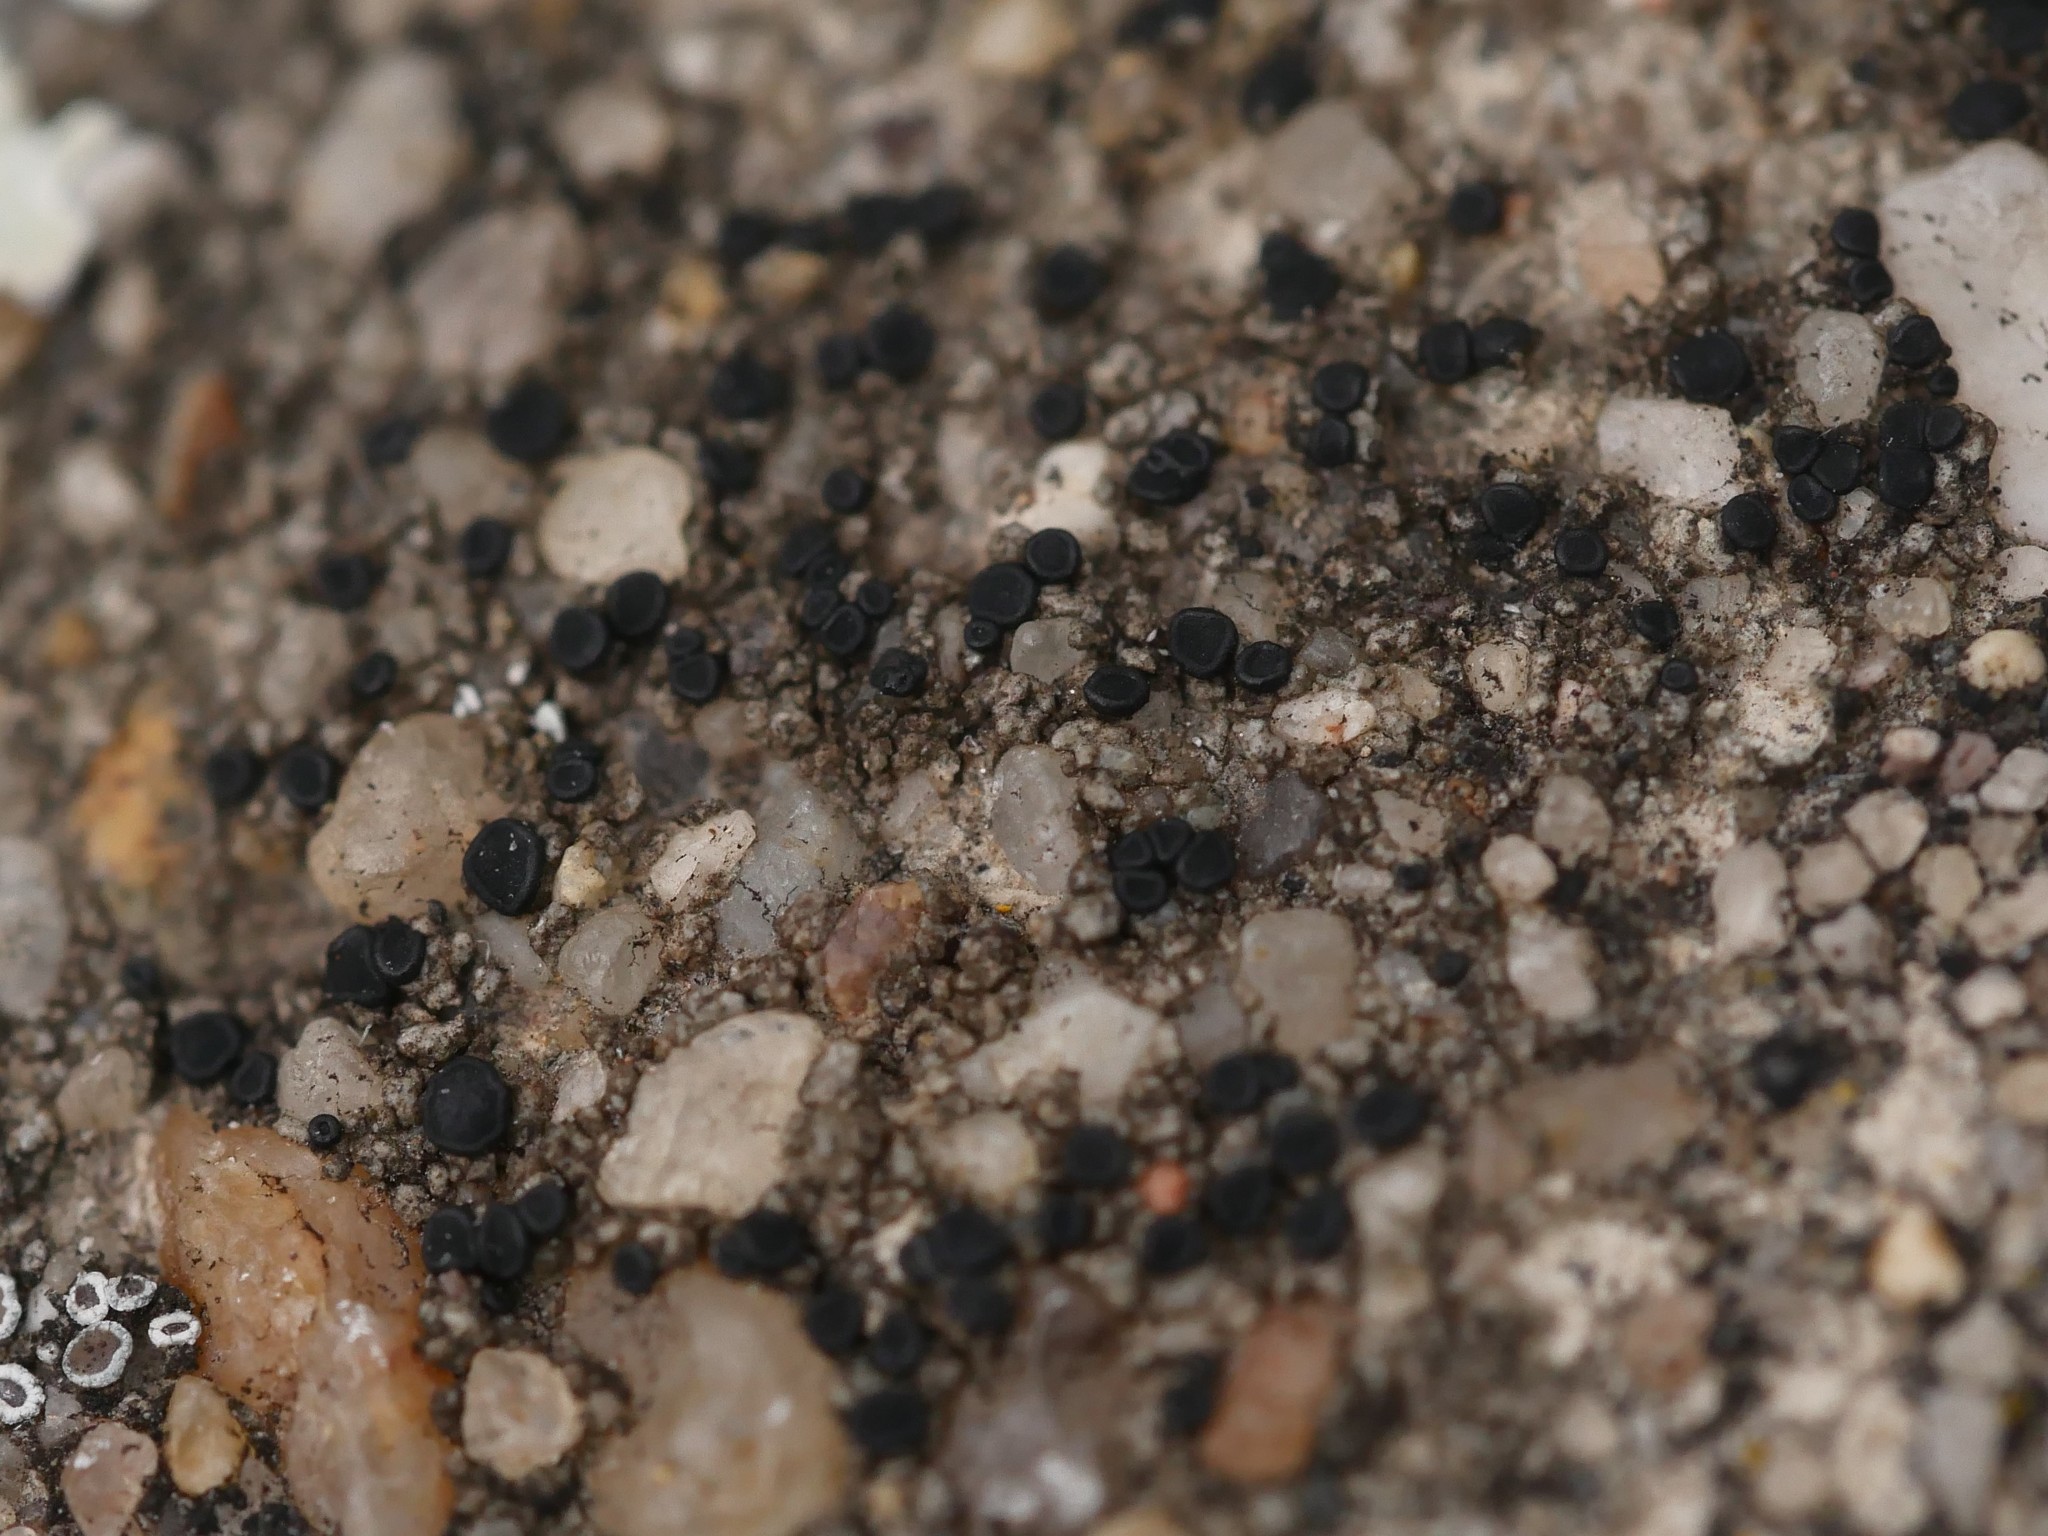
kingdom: Fungi
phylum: Ascomycota
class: Lecanoromycetes
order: Lecanorales
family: Lecanoraceae
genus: Lecidella
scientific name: Lecidella stigmatea
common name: Limestone disc lichen
